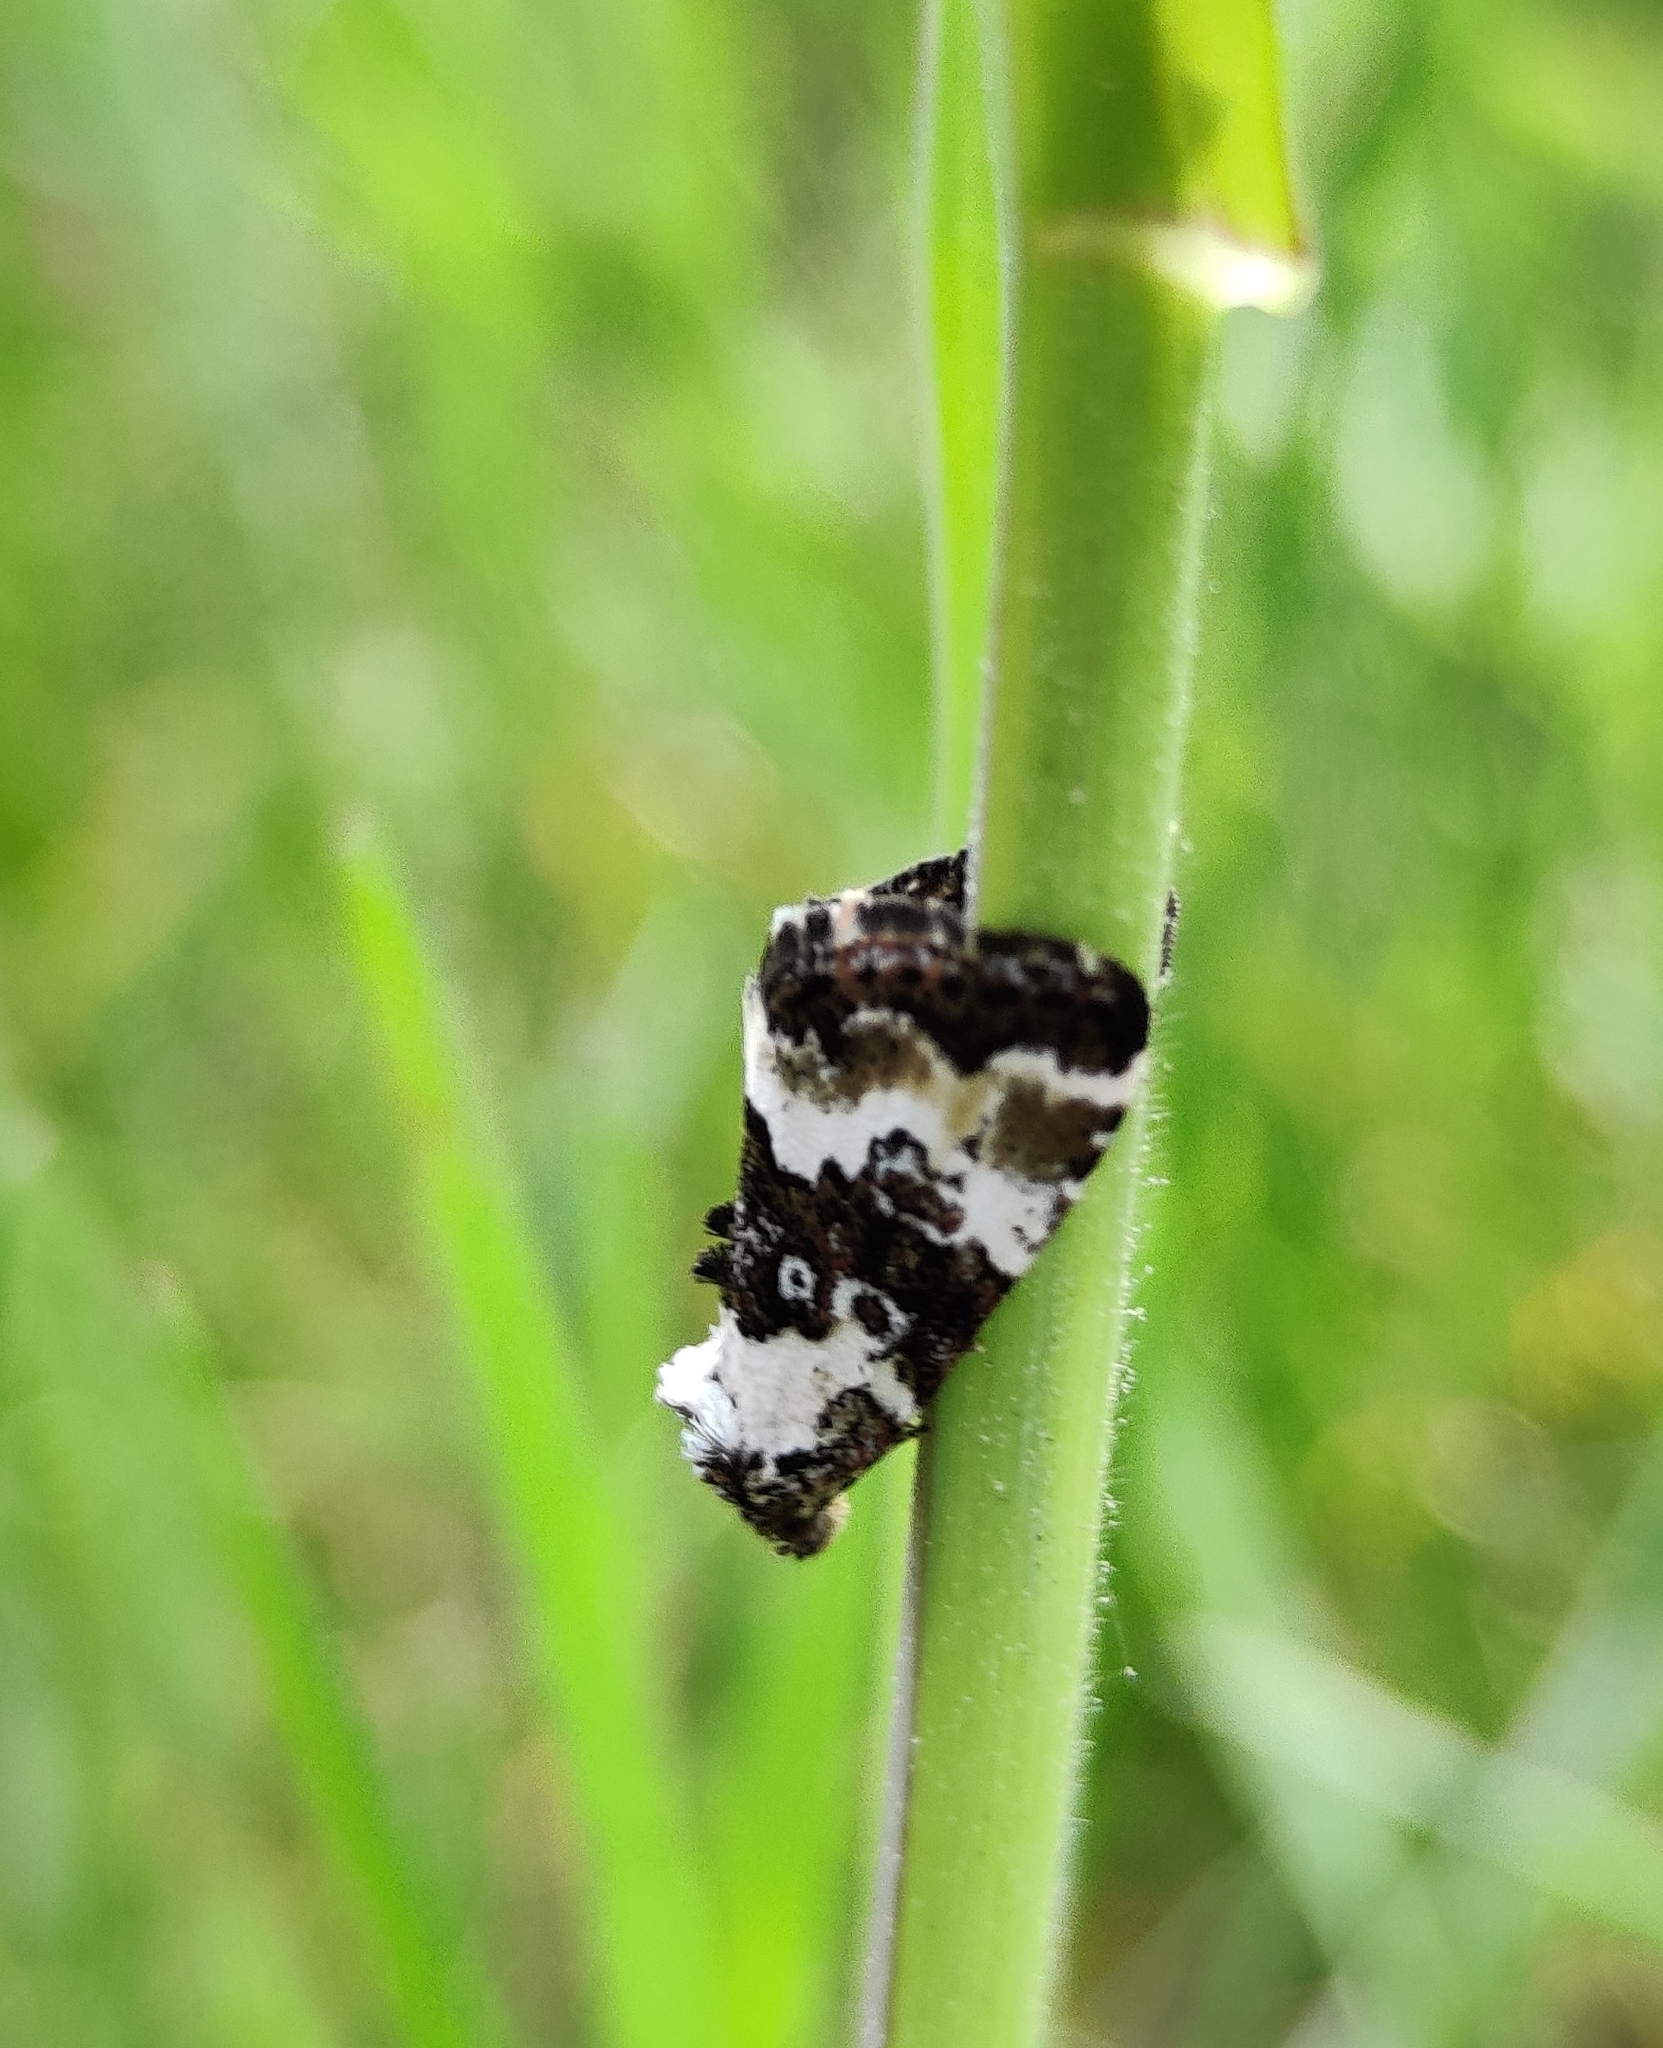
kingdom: Animalia
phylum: Arthropoda
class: Insecta
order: Lepidoptera
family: Noctuidae
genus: Deltote
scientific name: Deltote deceptoria
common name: Pretty marbled
